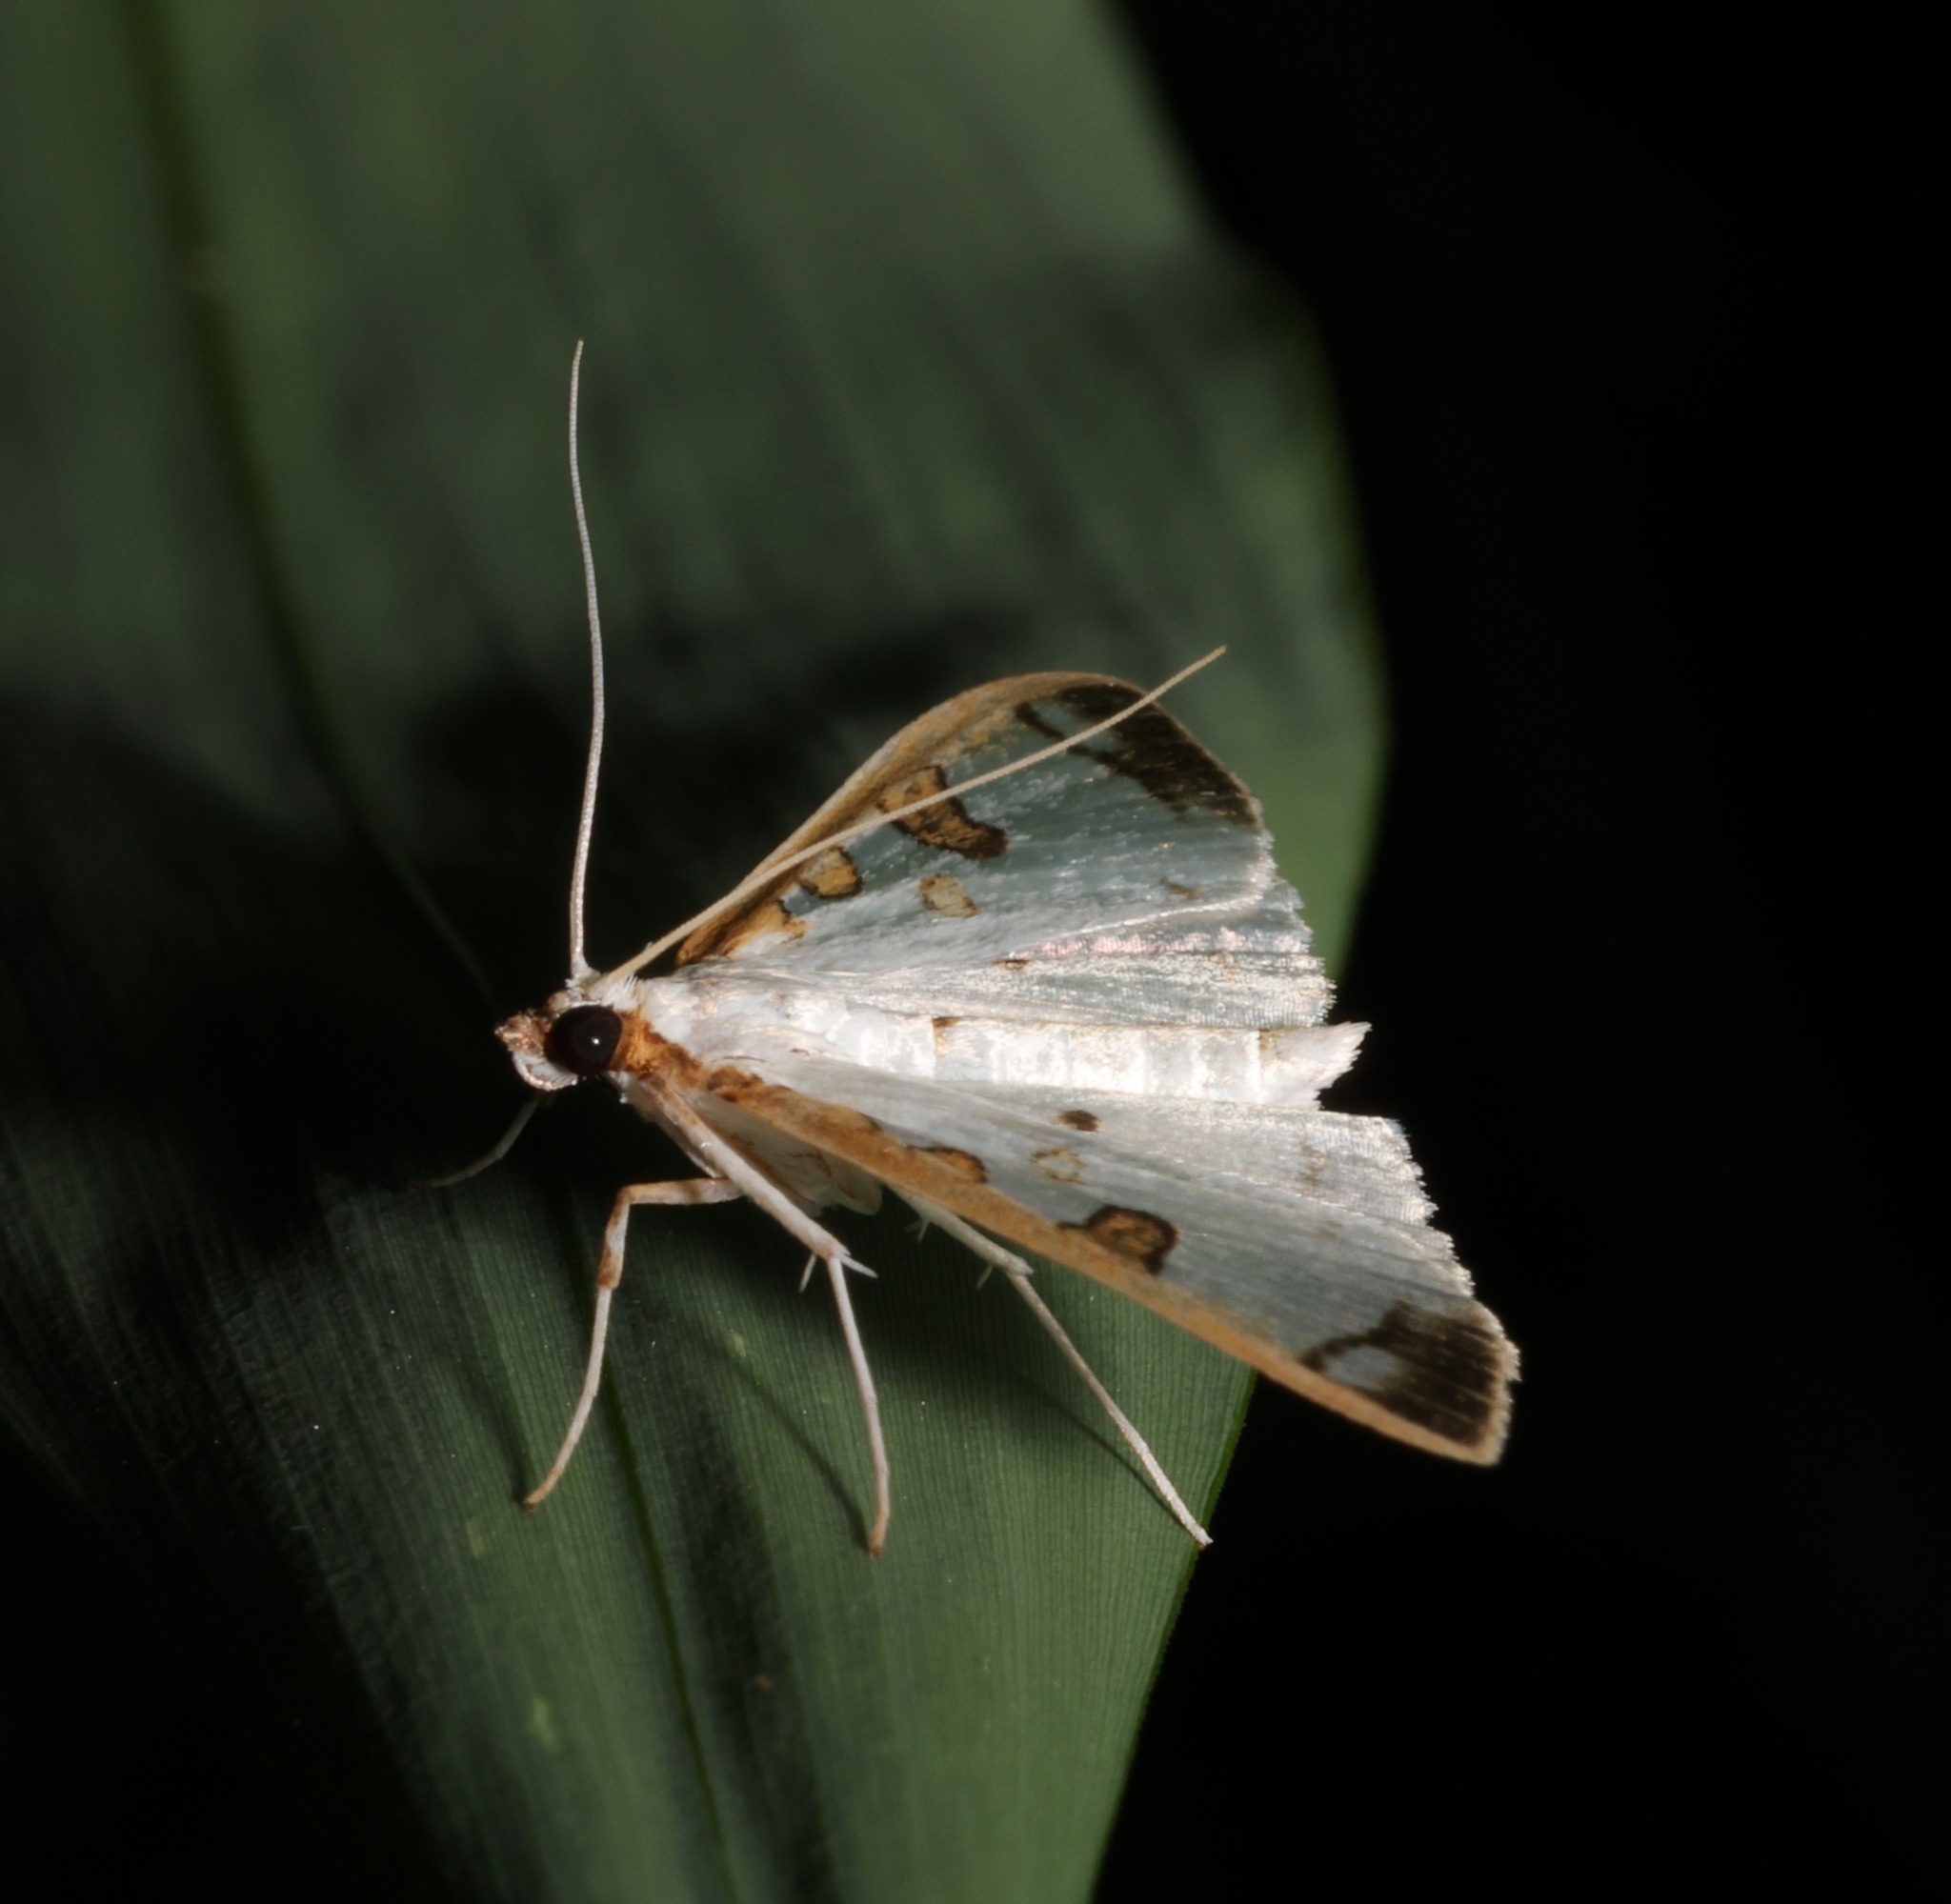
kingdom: Animalia
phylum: Arthropoda
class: Insecta
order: Lepidoptera
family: Crambidae
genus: Palpita
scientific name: Palpita parvifraterna
